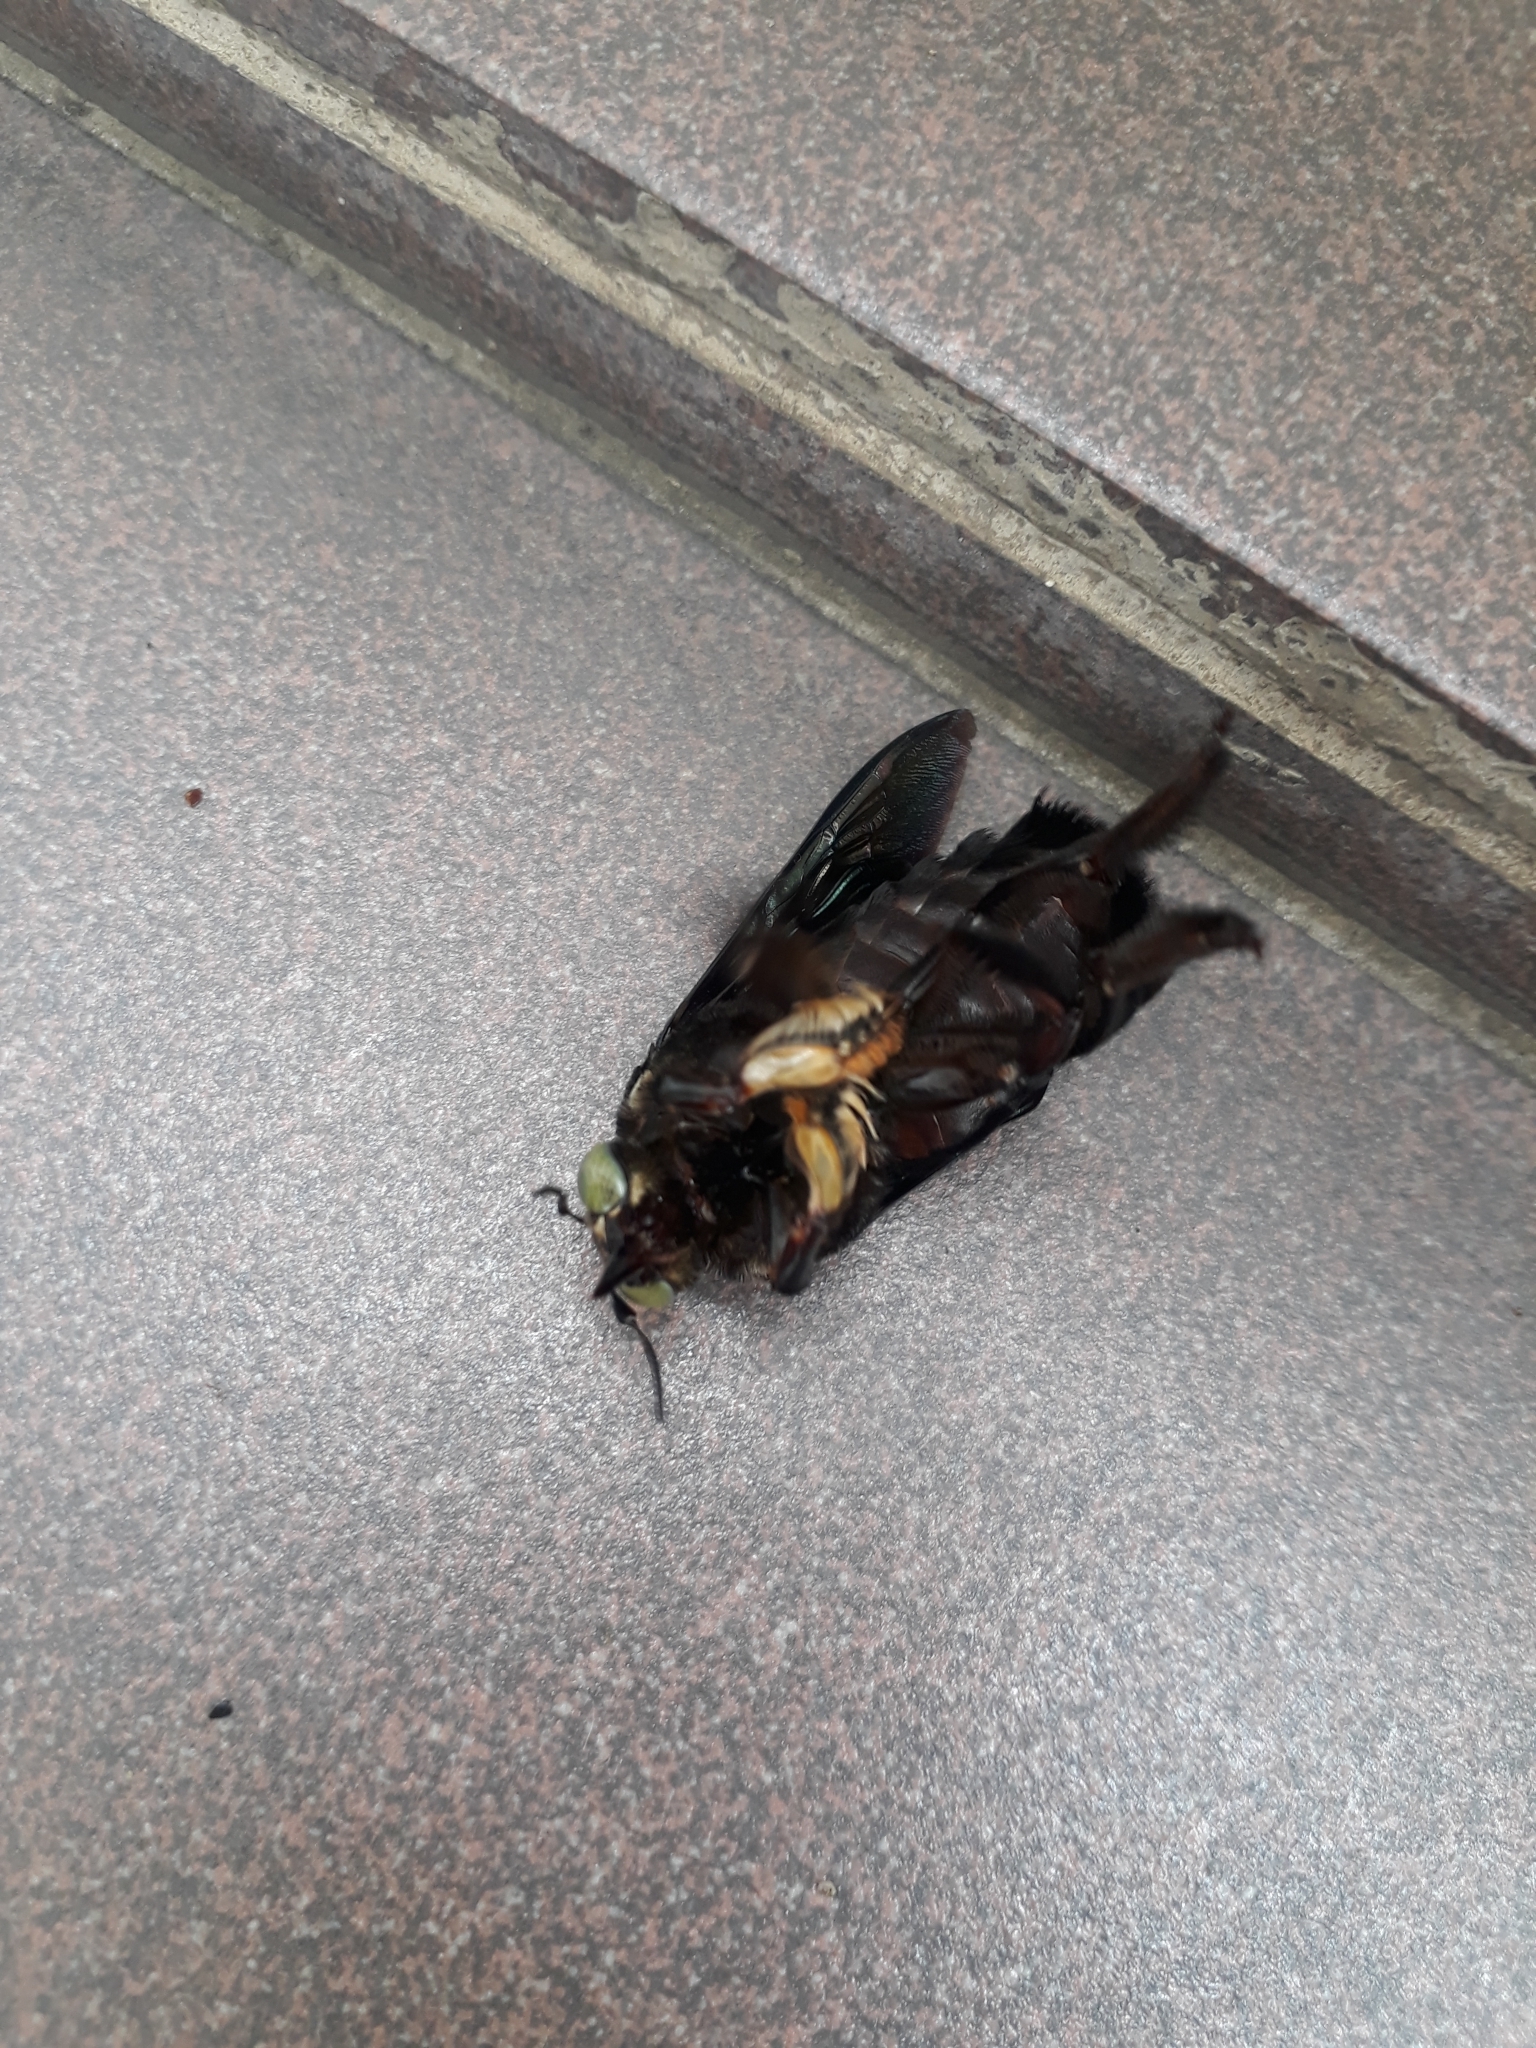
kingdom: Animalia
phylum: Arthropoda
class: Insecta
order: Hymenoptera
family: Apidae
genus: Xylocopa
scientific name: Xylocopa latipes
